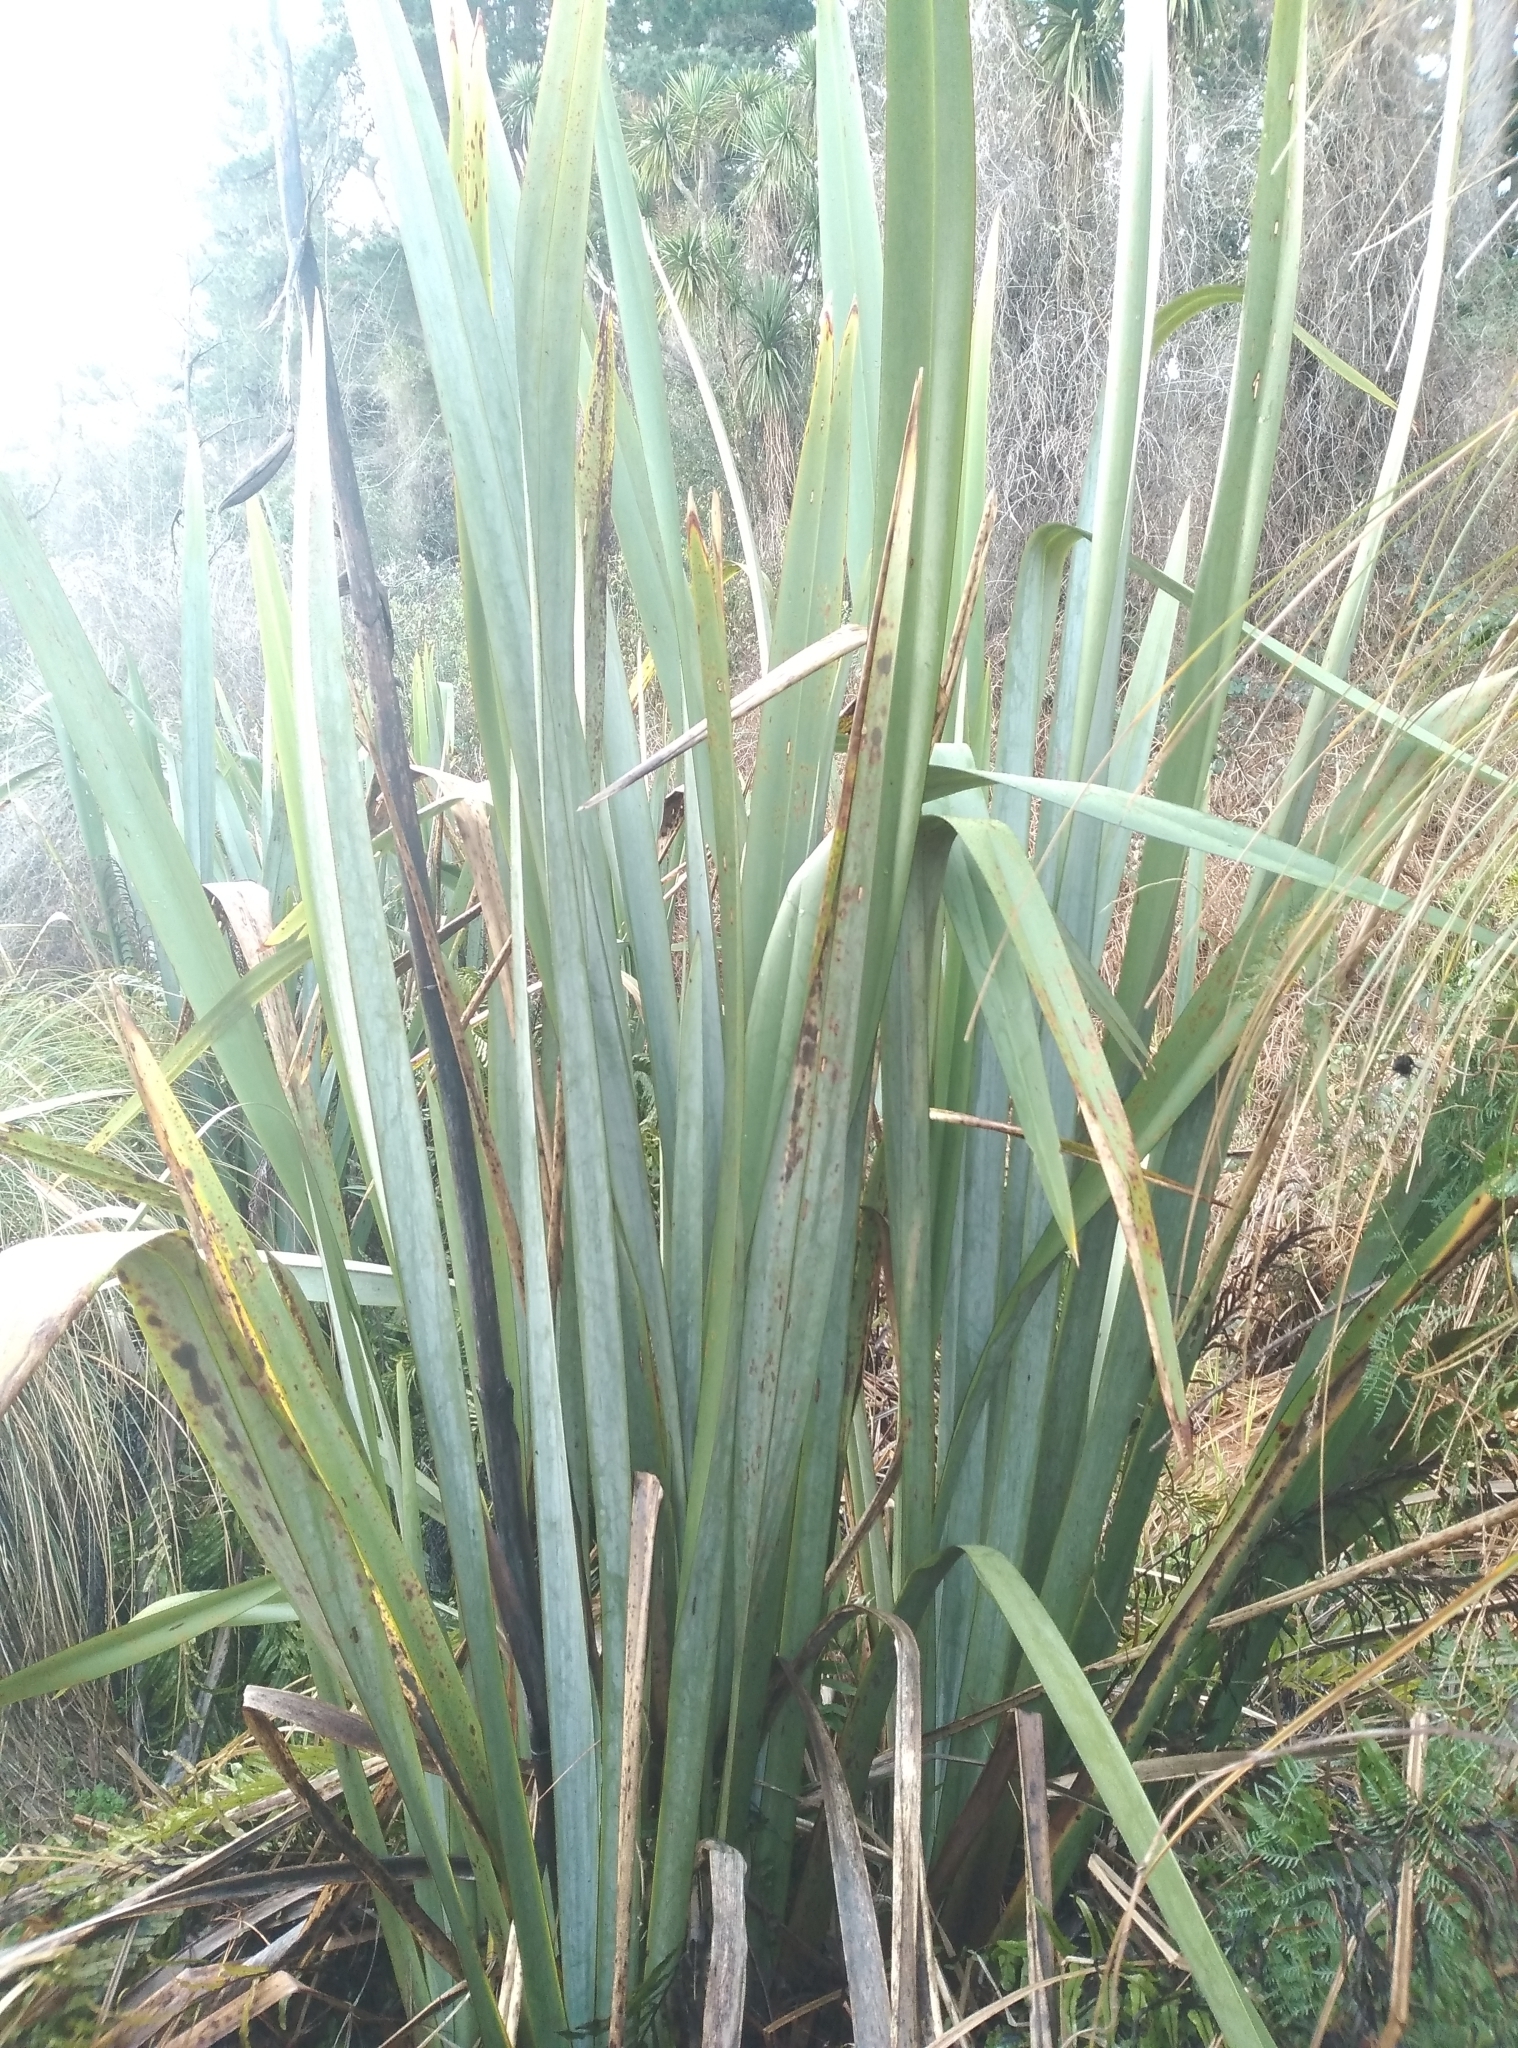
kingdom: Plantae
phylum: Tracheophyta
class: Liliopsida
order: Asparagales
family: Asphodelaceae
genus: Phormium
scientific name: Phormium tenax
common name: New zealand flax
